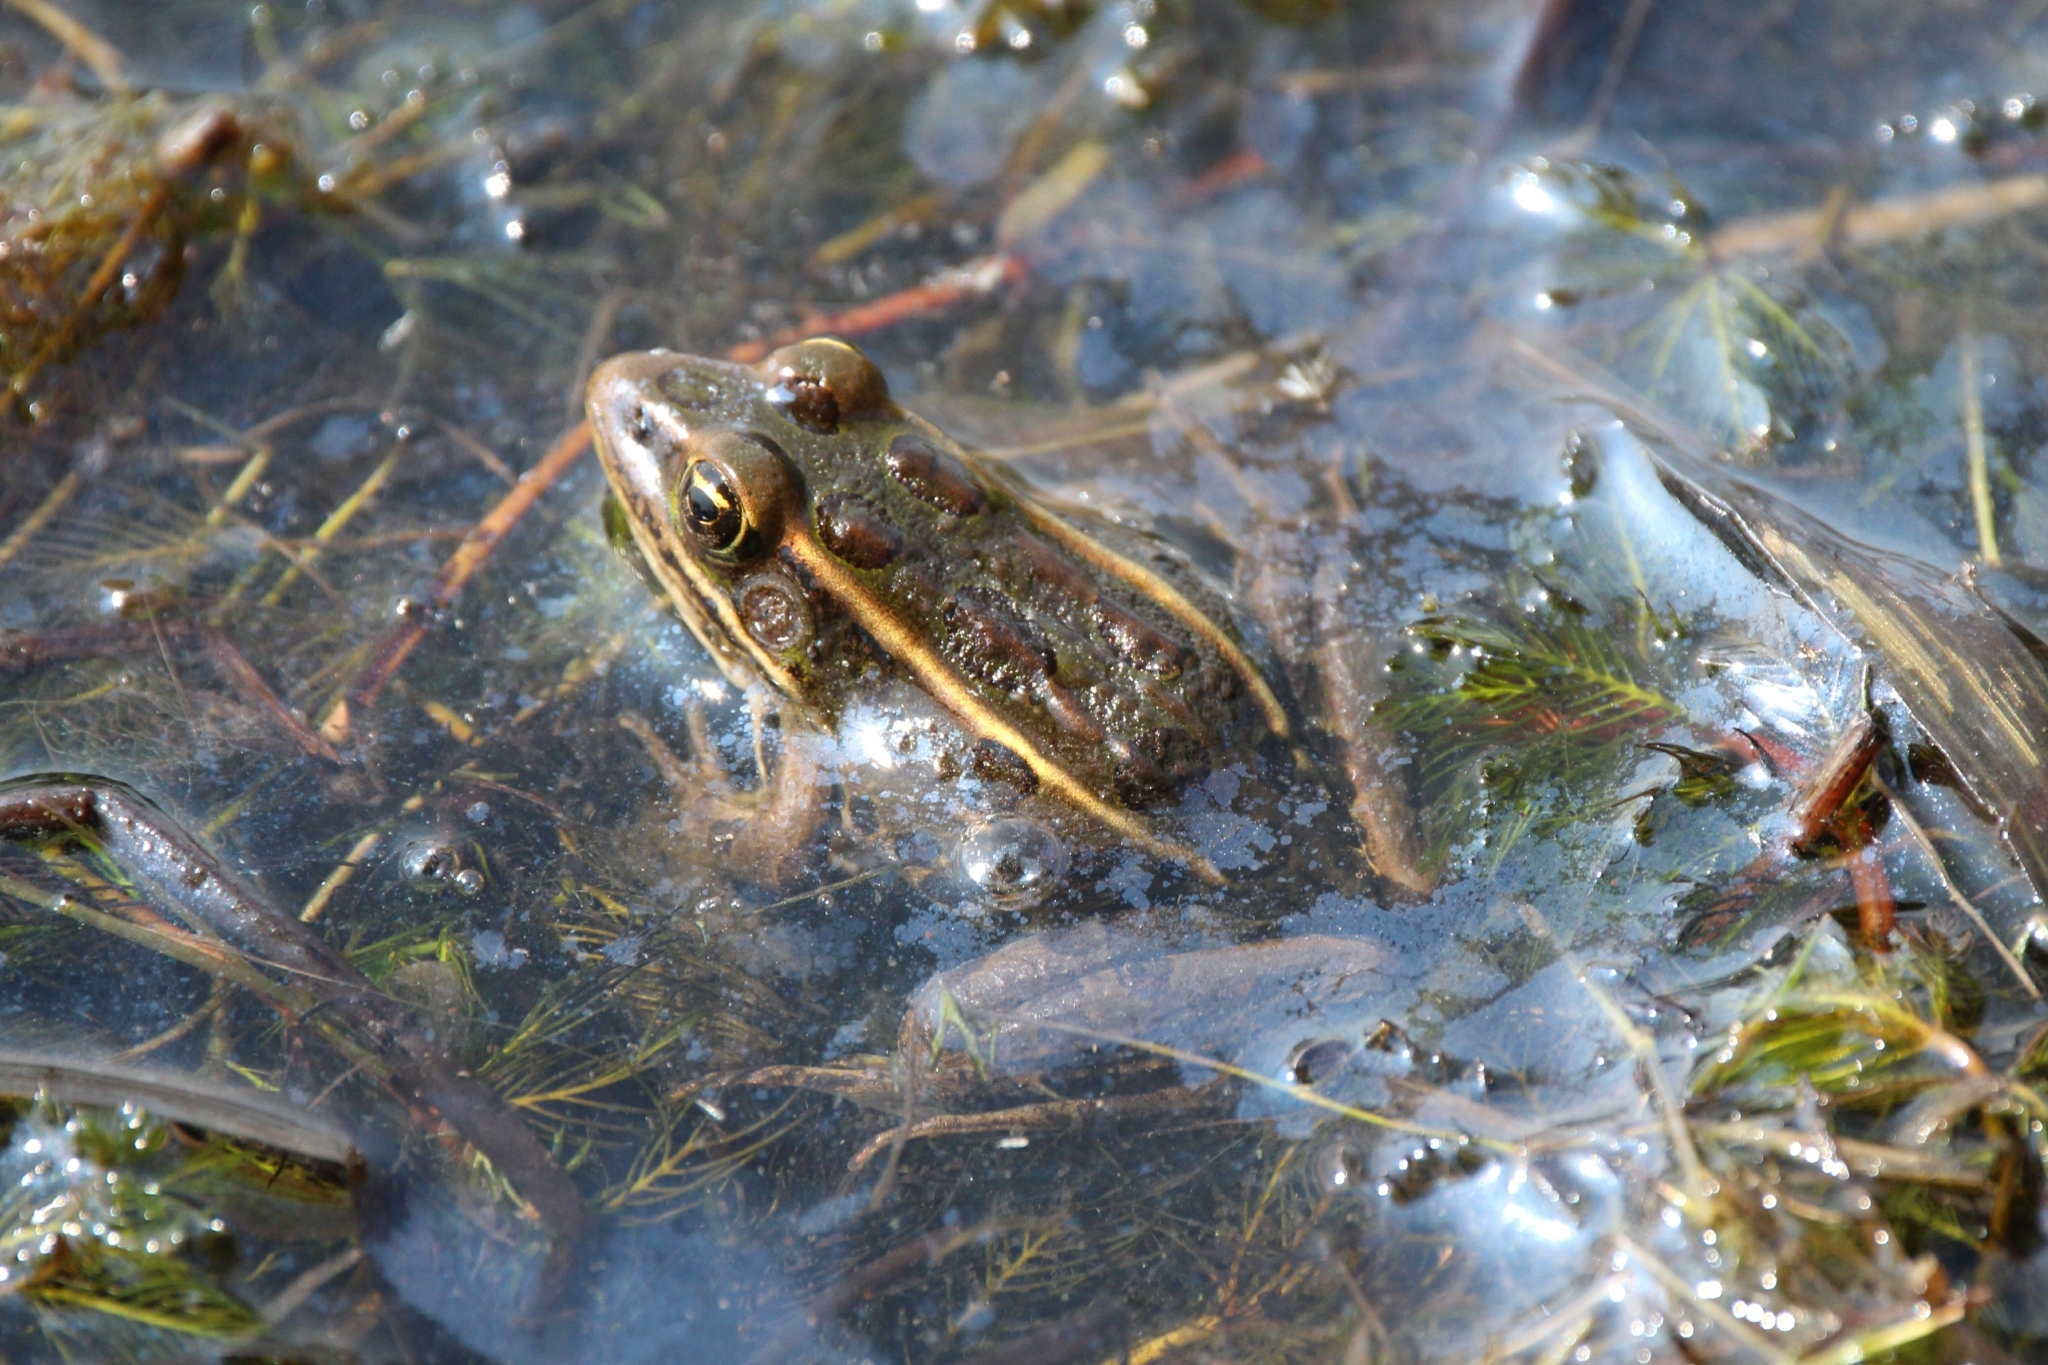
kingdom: Animalia
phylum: Chordata
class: Amphibia
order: Anura
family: Ranidae
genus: Lithobates
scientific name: Lithobates pipiens
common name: Northern leopard frog
